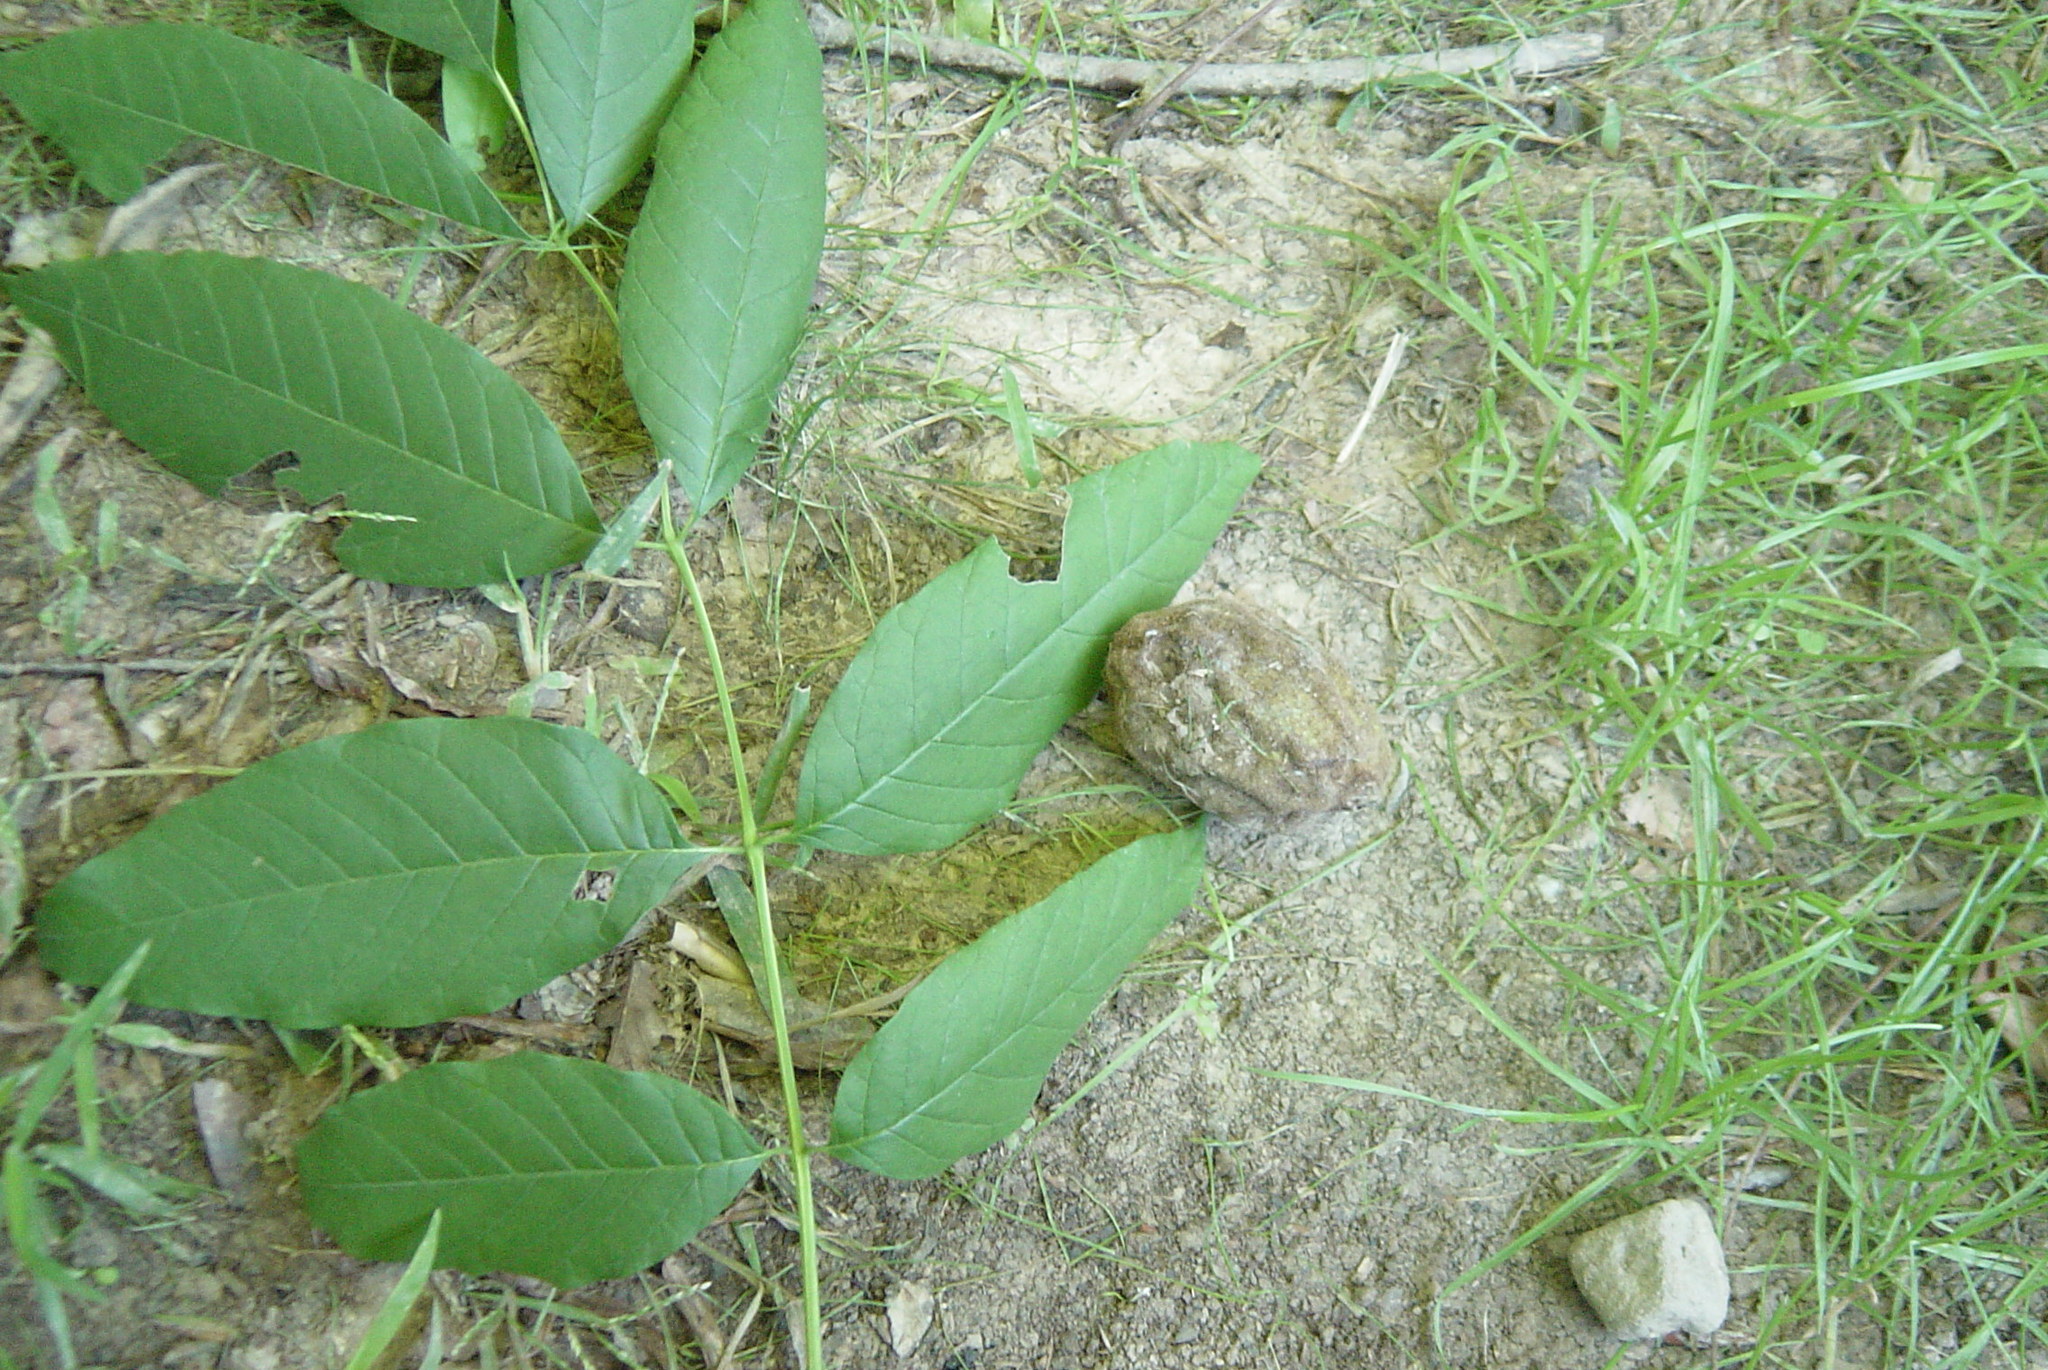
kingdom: Plantae
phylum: Tracheophyta
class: Magnoliopsida
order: Fagales
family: Juglandaceae
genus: Juglans
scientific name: Juglans cinerea
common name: Butternut
